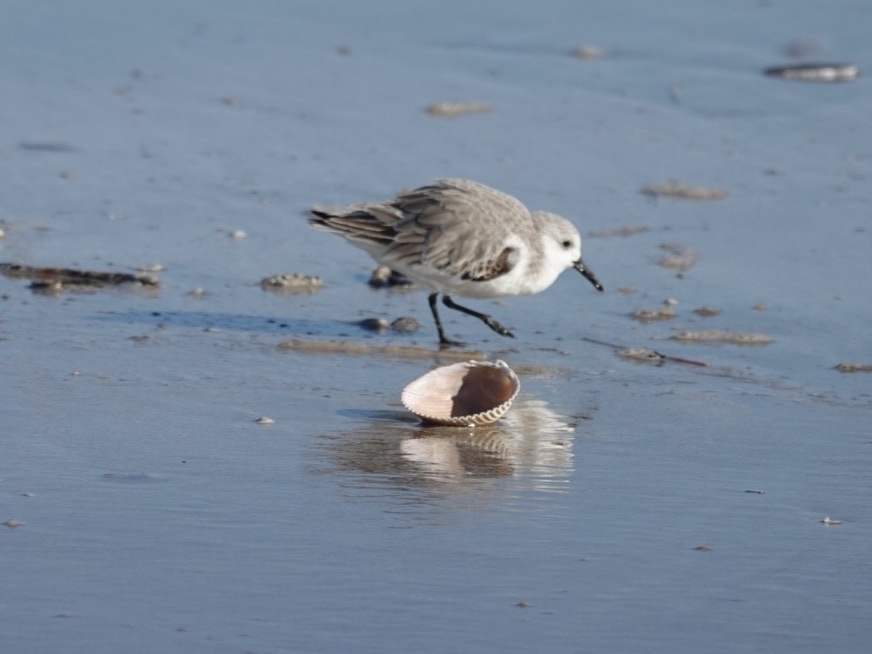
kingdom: Animalia
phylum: Chordata
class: Aves
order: Charadriiformes
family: Scolopacidae
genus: Calidris
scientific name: Calidris alba
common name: Sanderling
